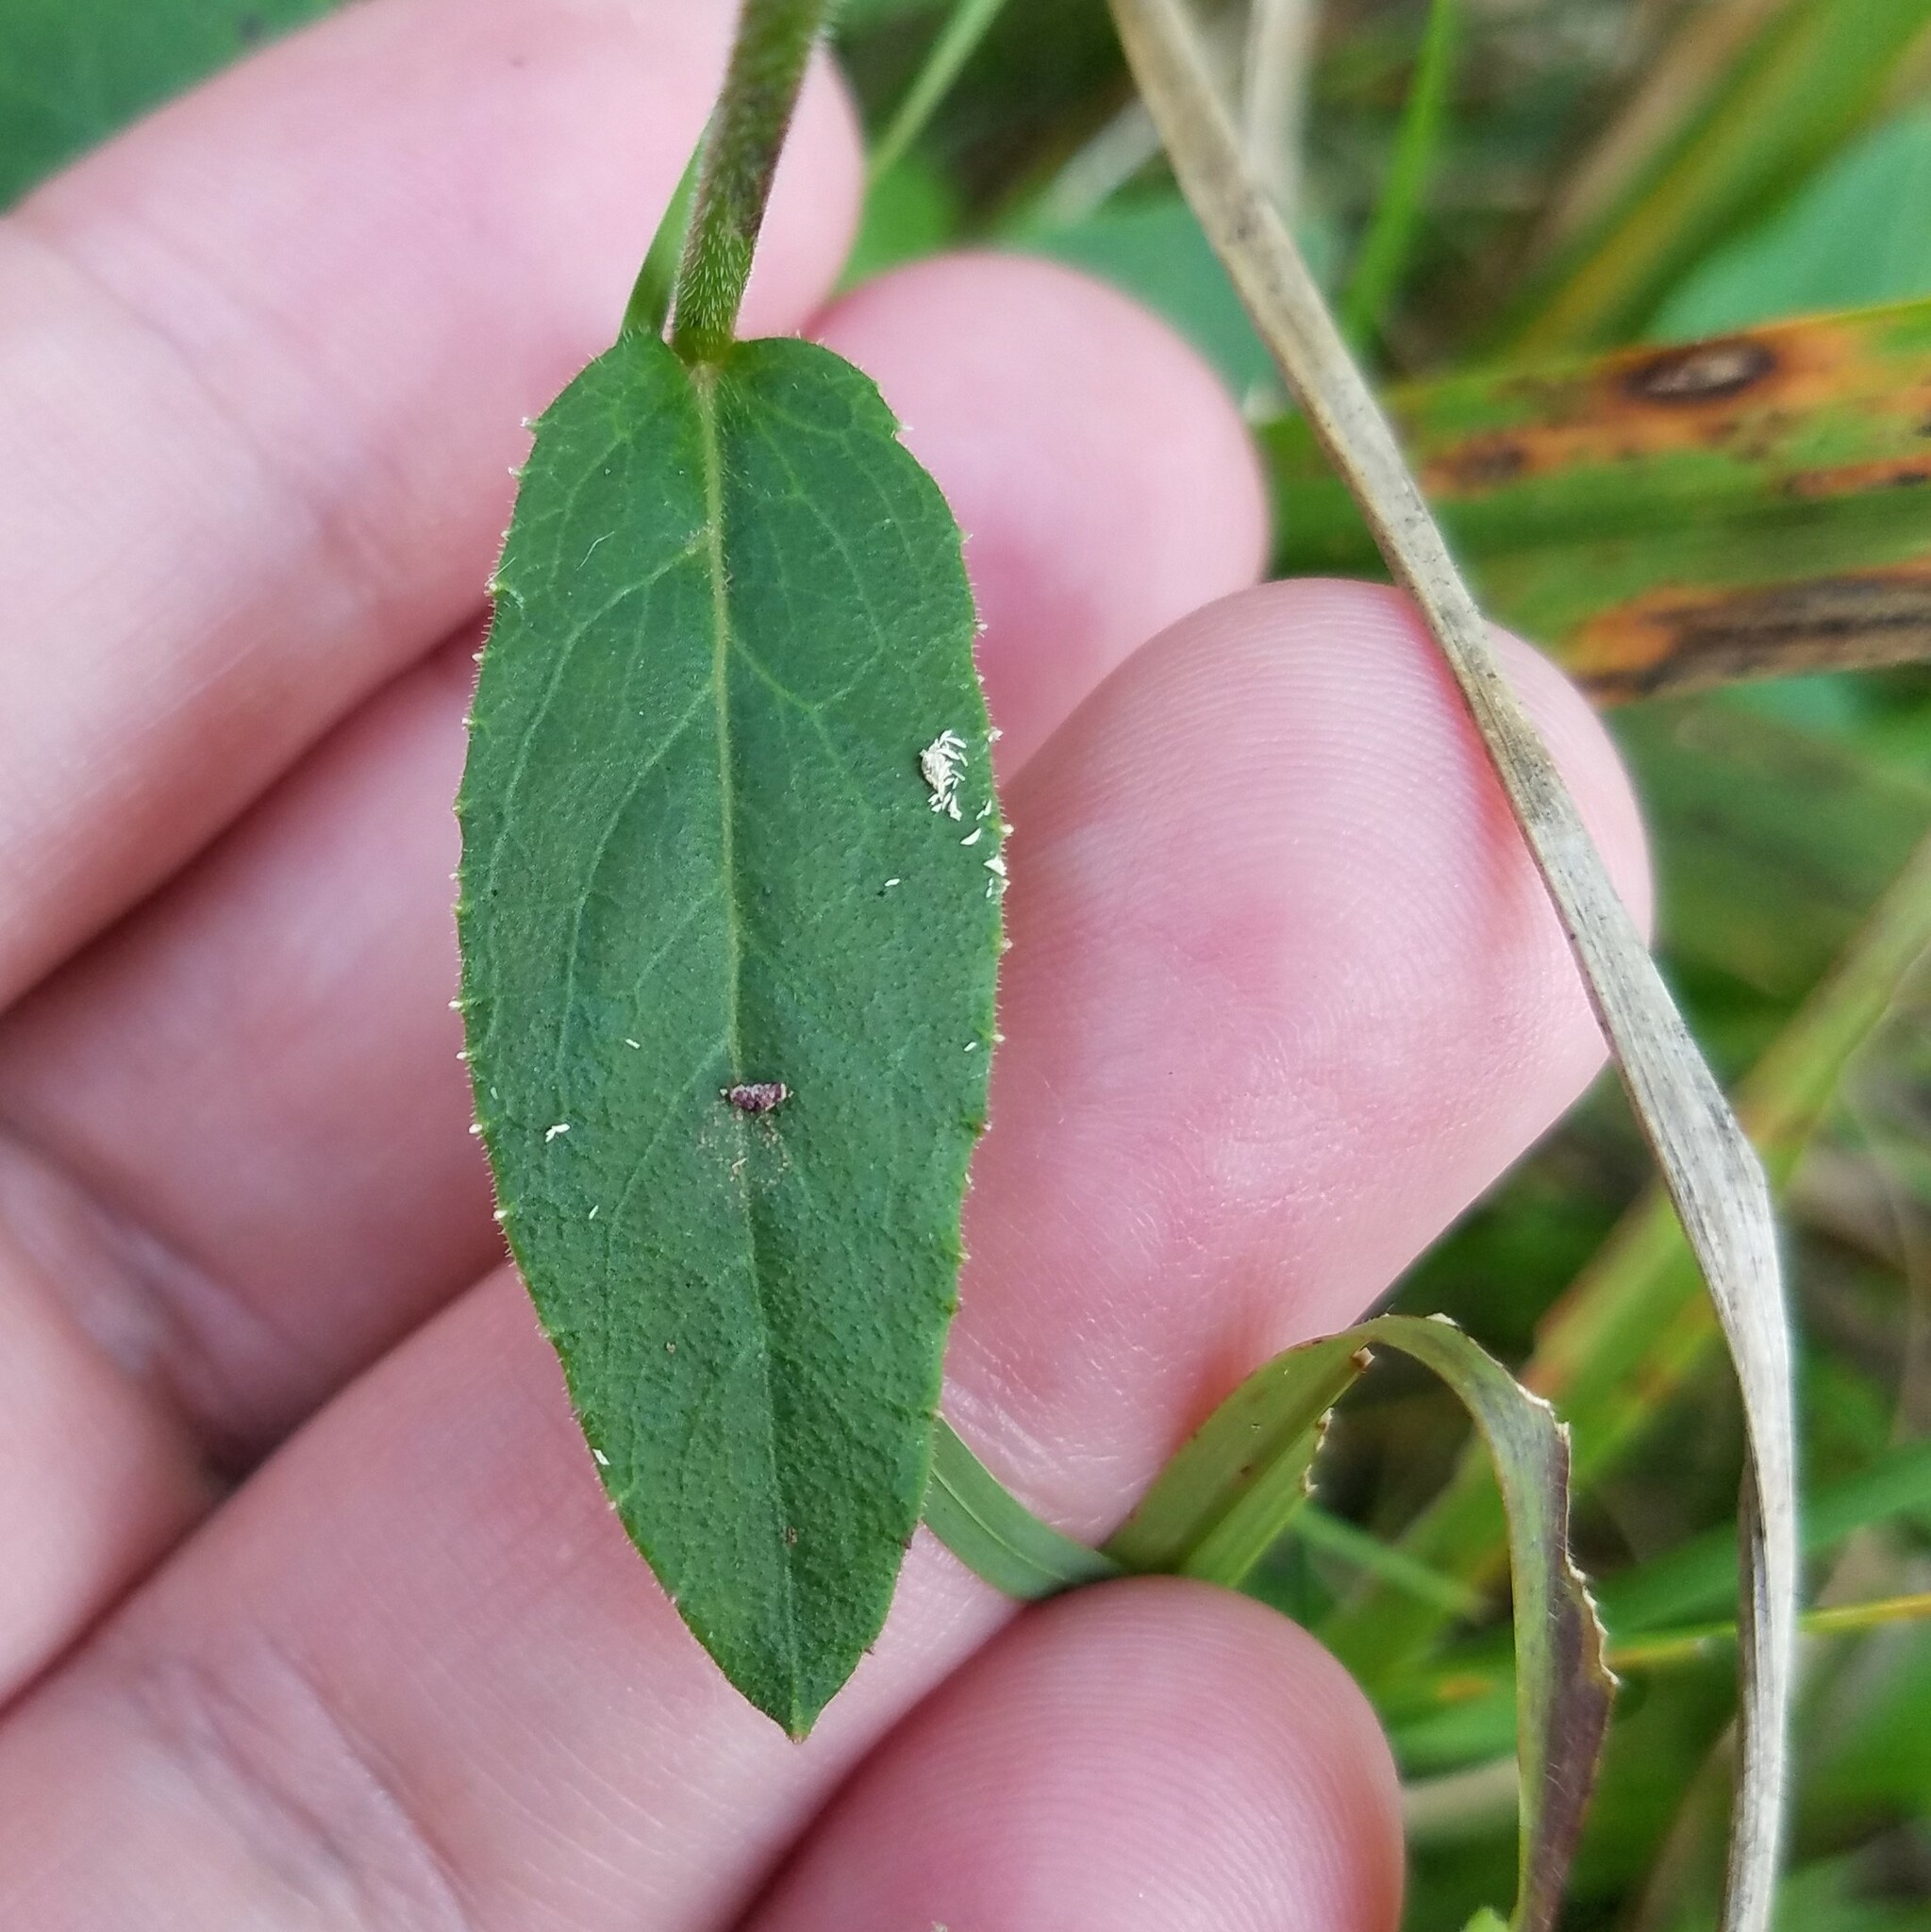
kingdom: Plantae
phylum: Tracheophyta
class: Magnoliopsida
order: Asterales
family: Campanulaceae
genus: Lobelia
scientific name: Lobelia puberula
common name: Purple dewdrop
